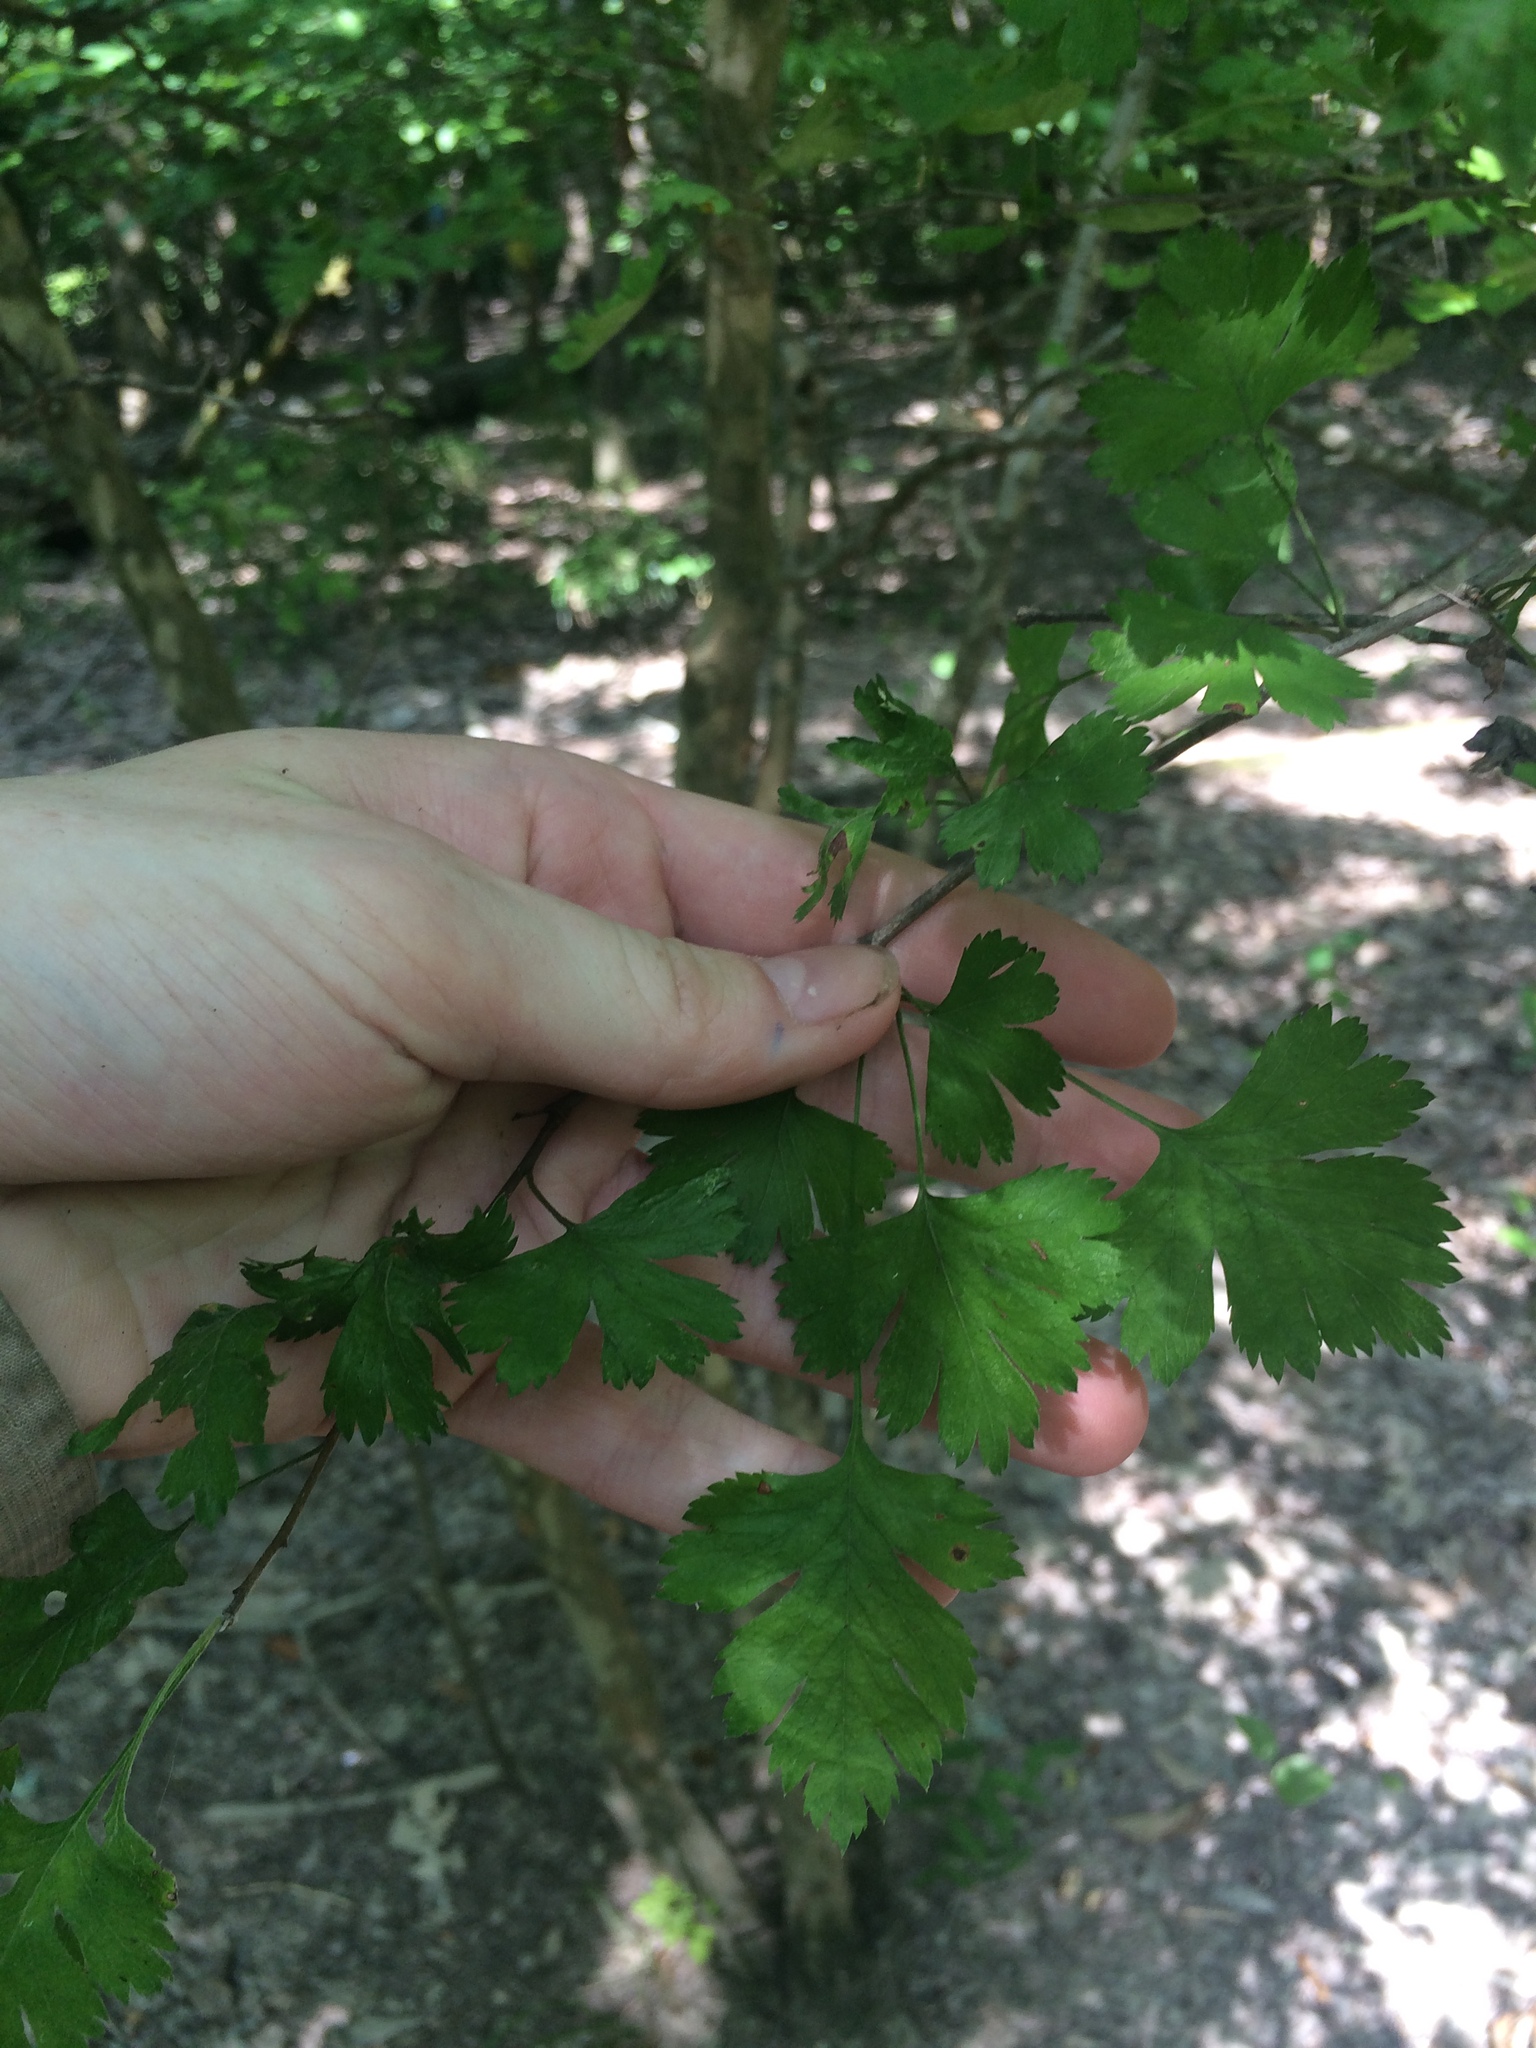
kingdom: Plantae
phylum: Tracheophyta
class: Magnoliopsida
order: Rosales
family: Rosaceae
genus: Crataegus
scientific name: Crataegus marshallii
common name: Parsley-hawthorn
